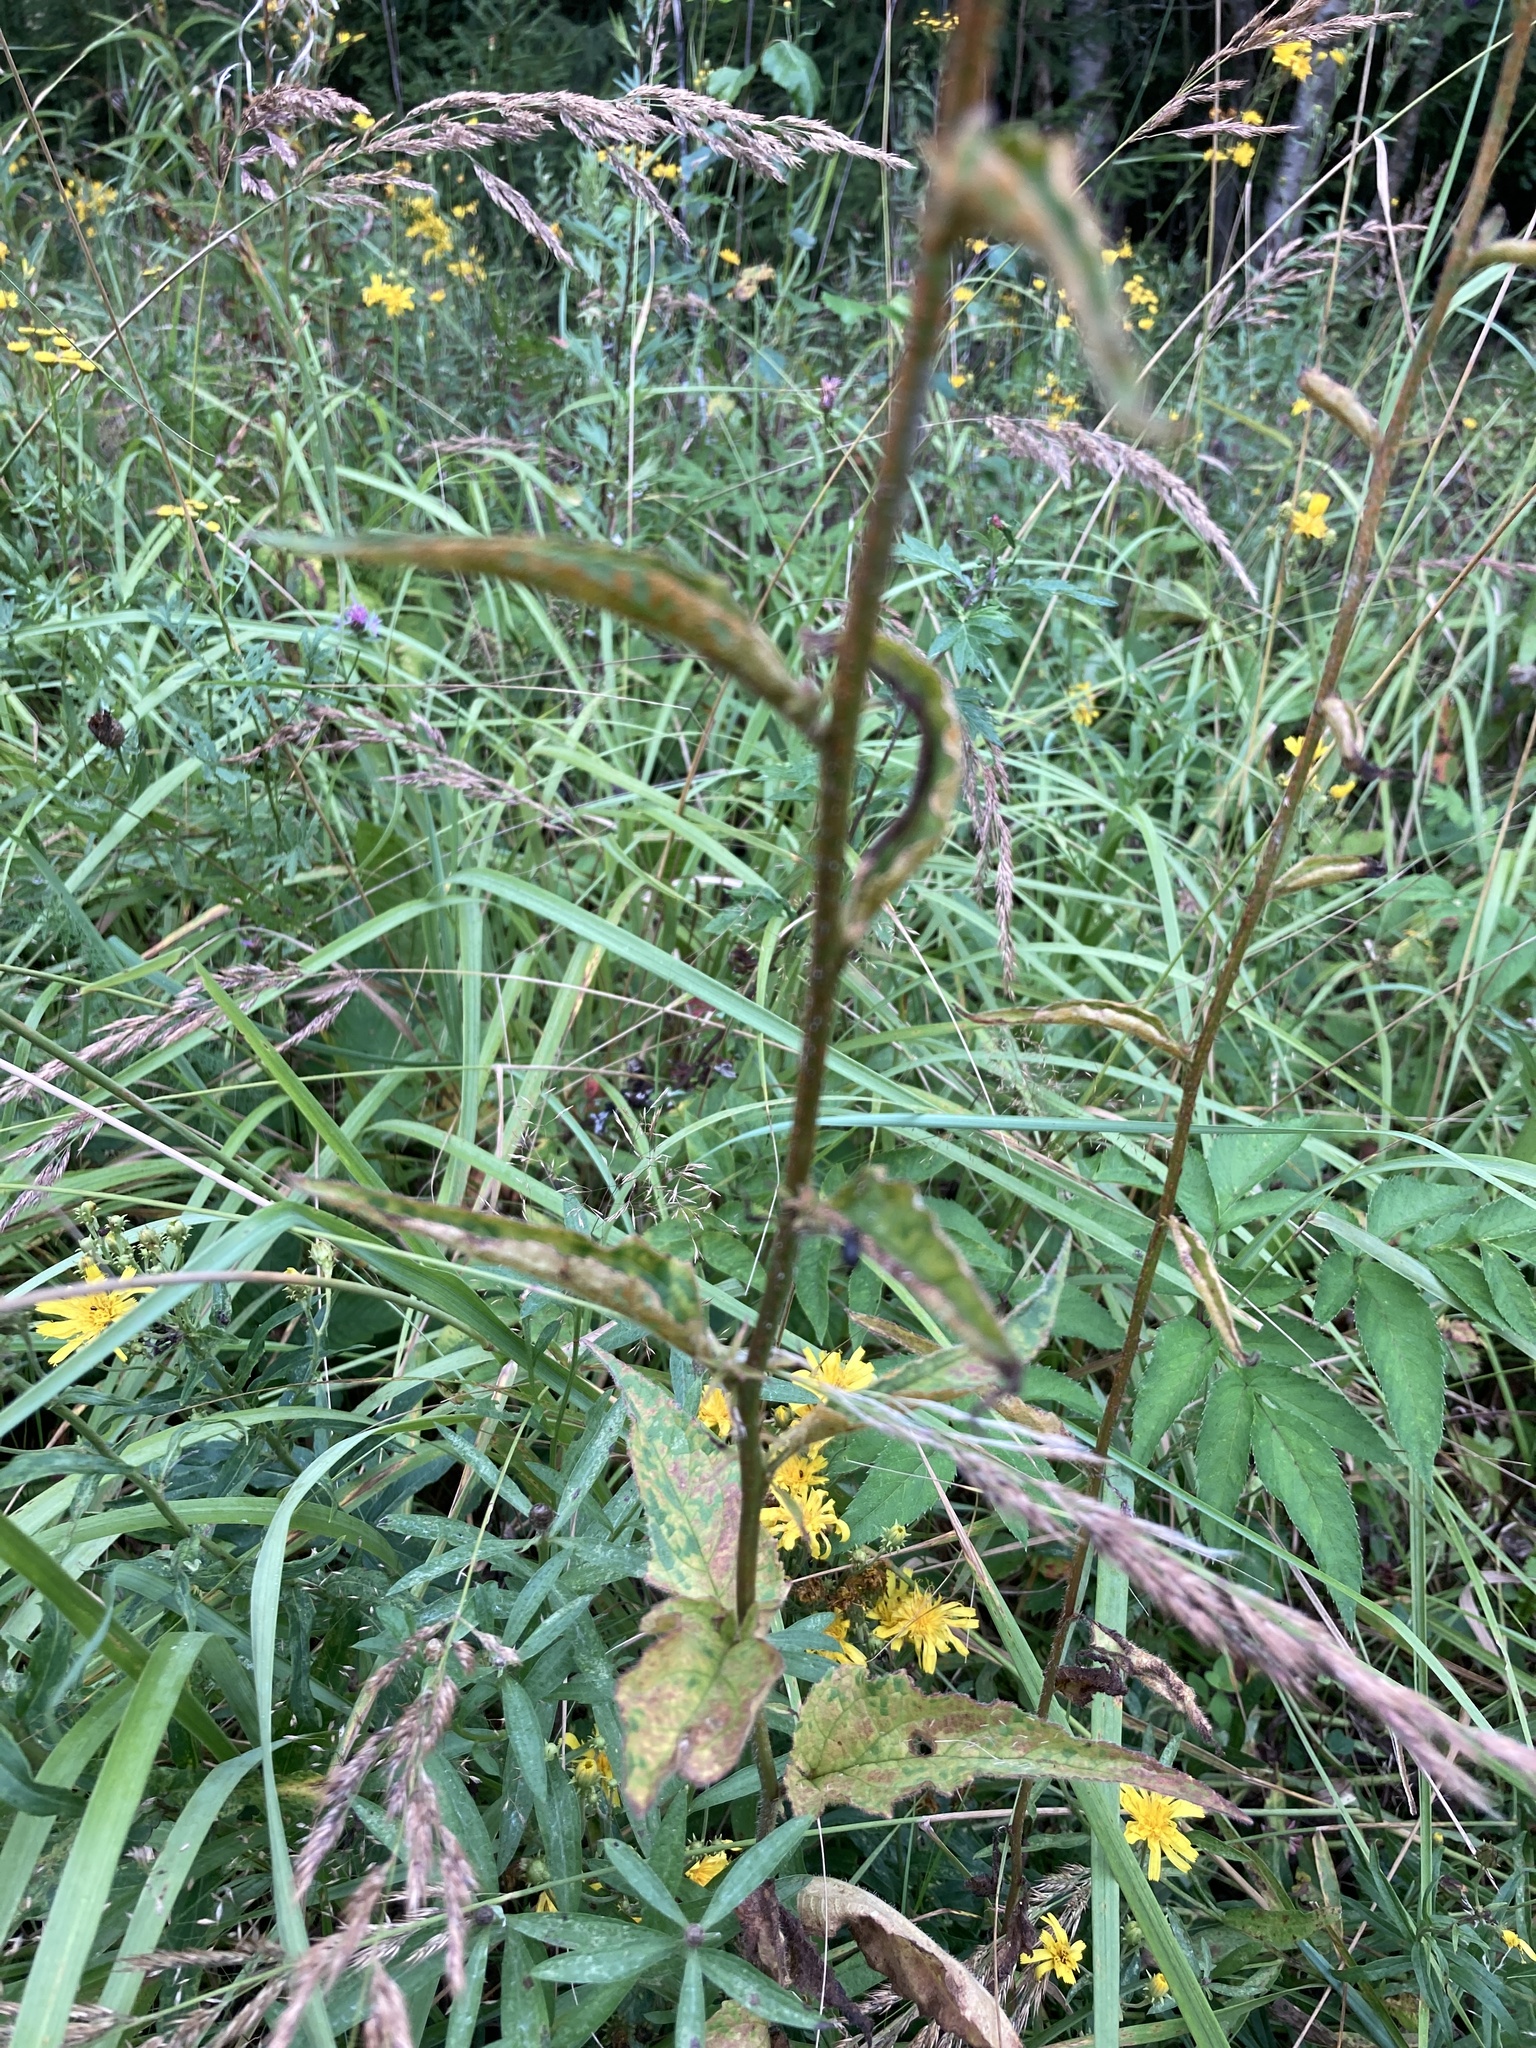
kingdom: Plantae
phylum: Tracheophyta
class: Magnoliopsida
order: Asterales
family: Campanulaceae
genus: Campanula
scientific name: Campanula rapunculoides
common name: Creeping bellflower
